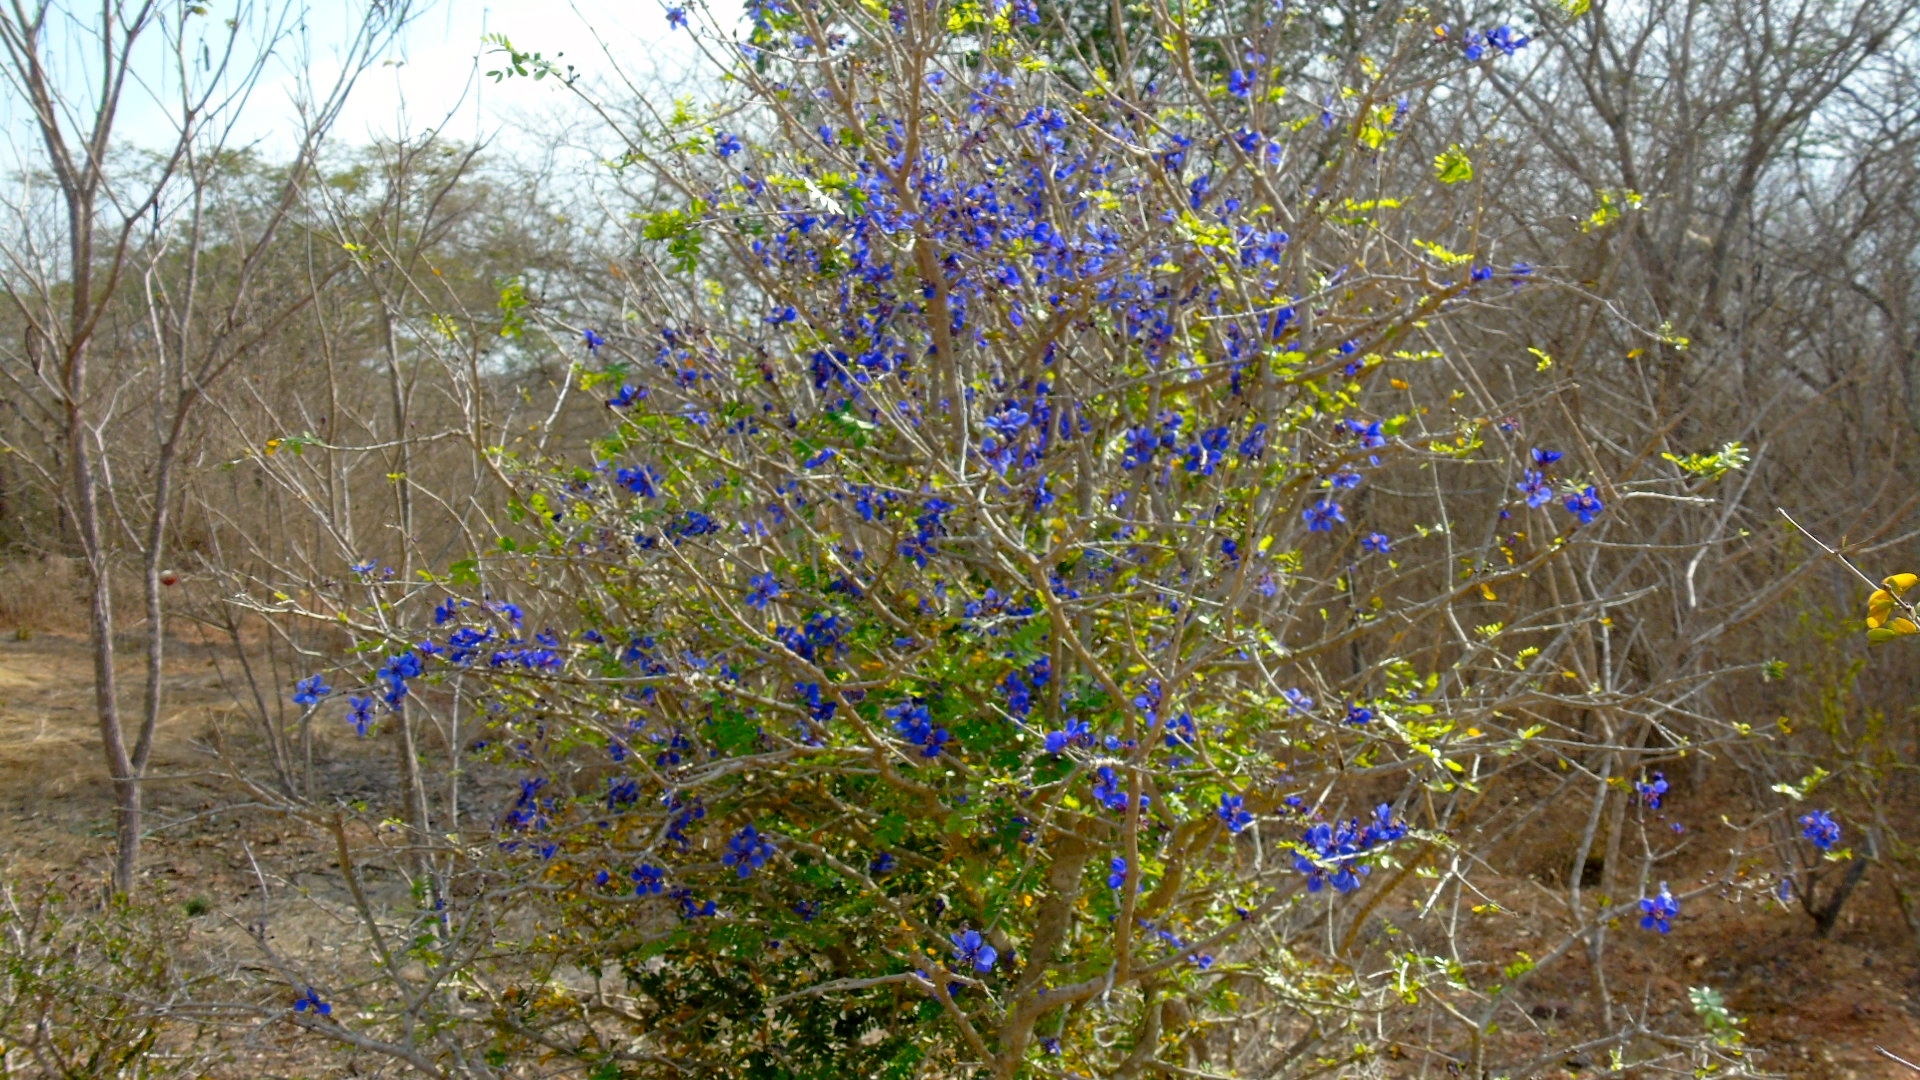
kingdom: Plantae
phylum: Tracheophyta
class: Magnoliopsida
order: Zygophyllales
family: Zygophyllaceae
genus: Guaiacum
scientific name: Guaiacum coulteri
